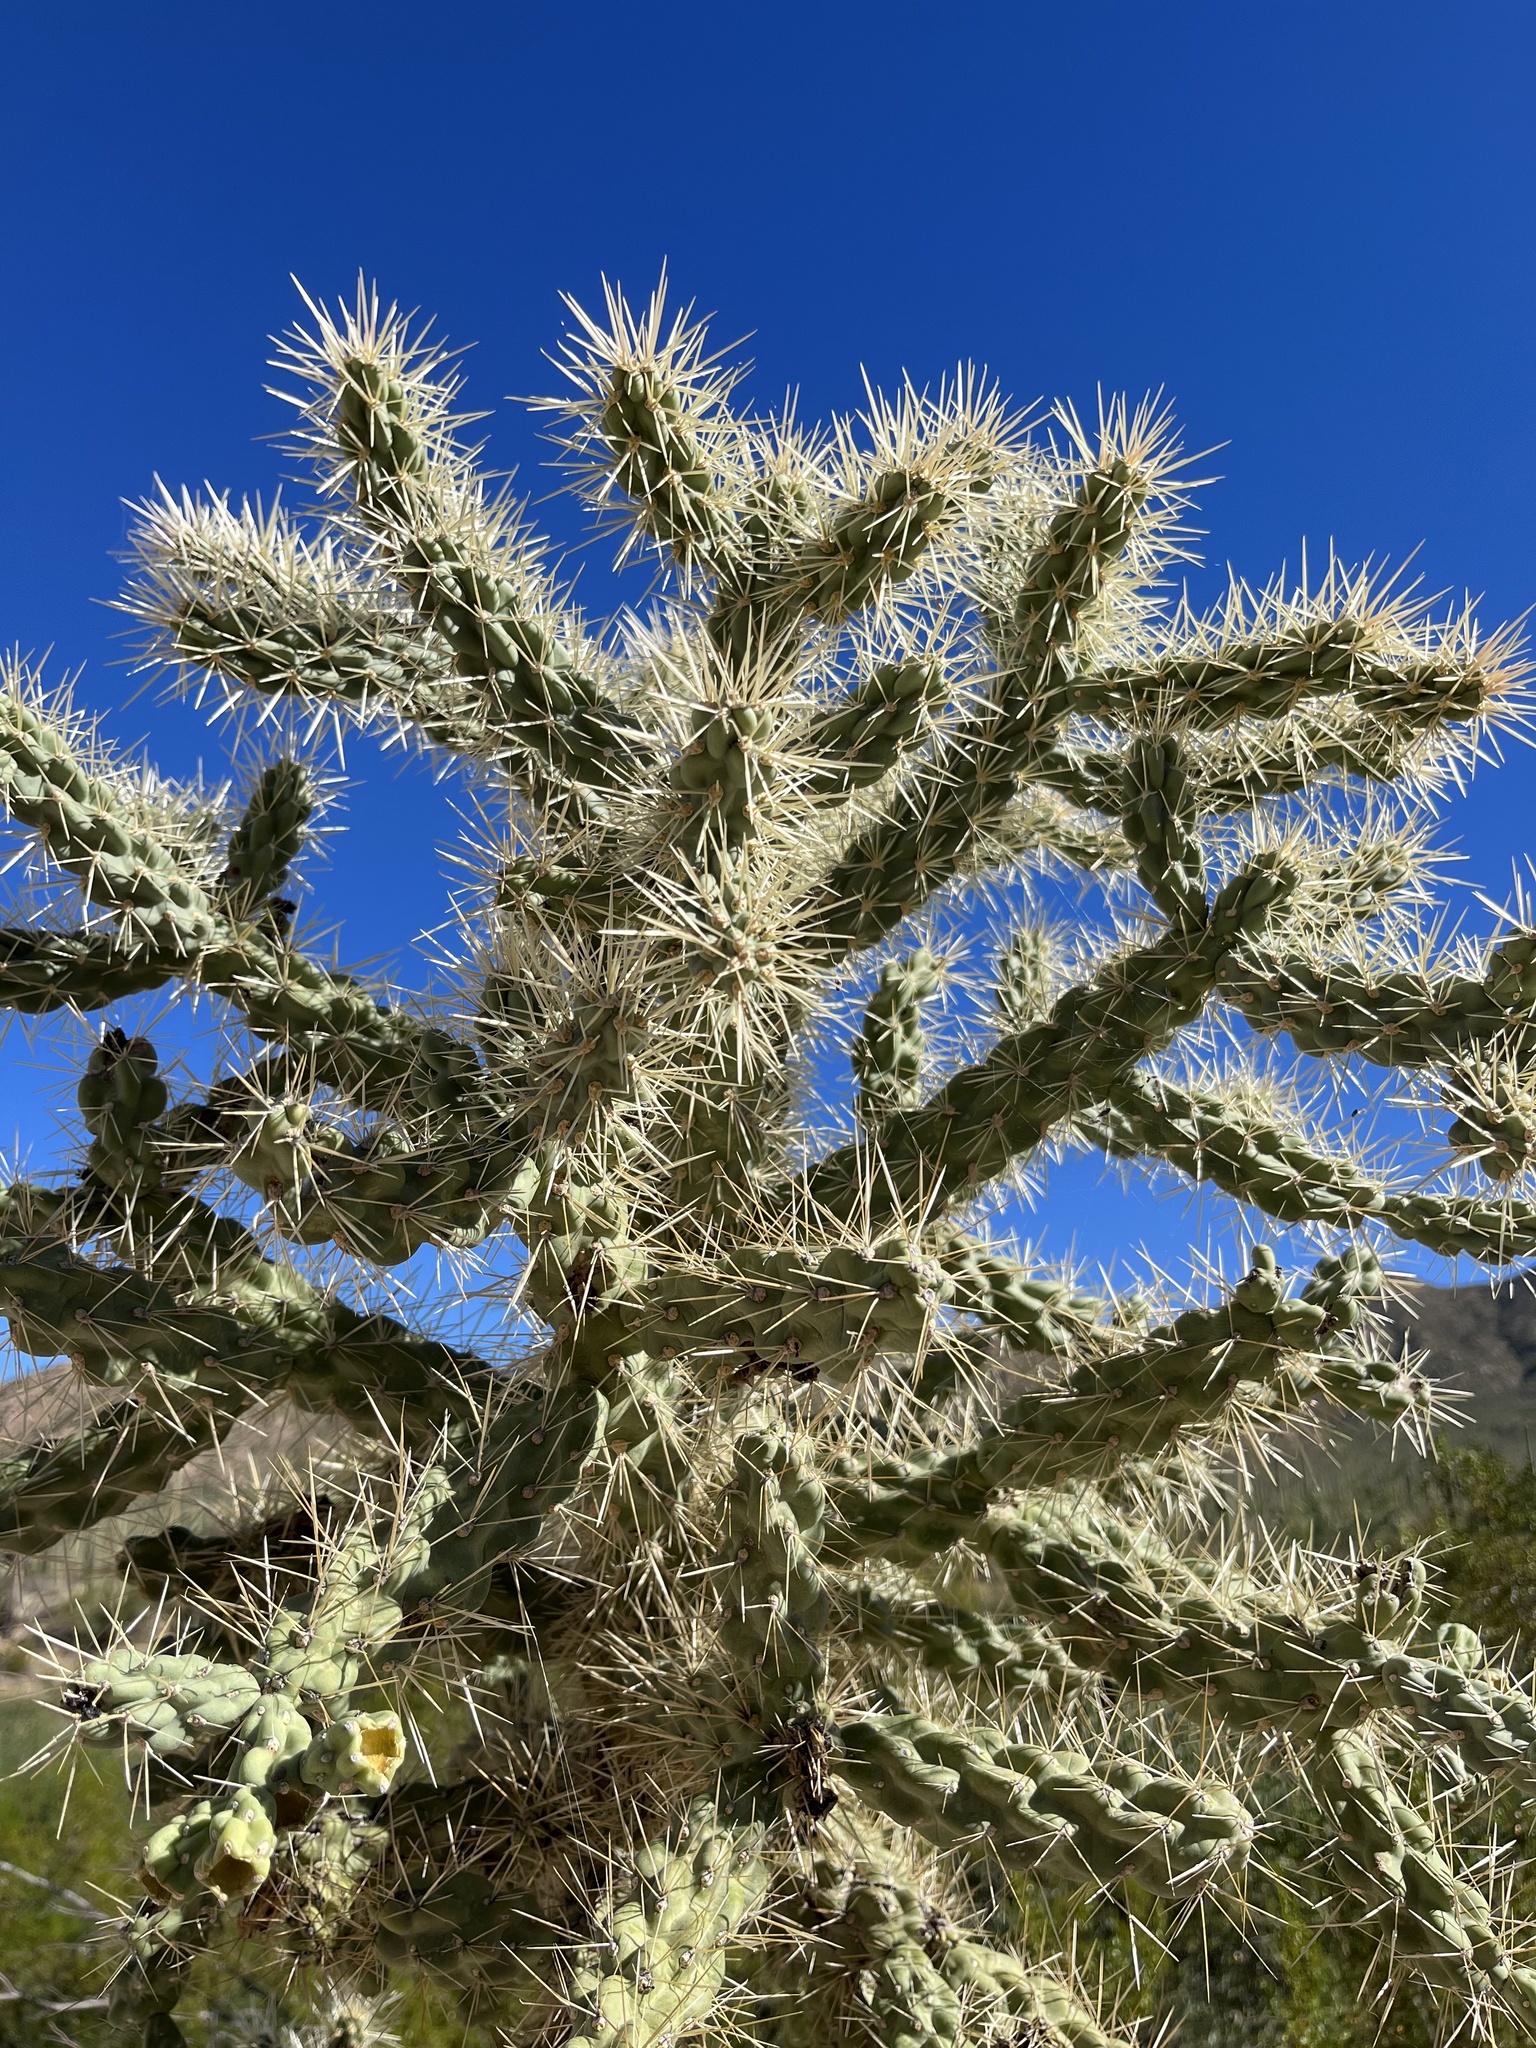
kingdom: Plantae
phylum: Tracheophyta
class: Magnoliopsida
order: Caryophyllales
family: Cactaceae
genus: Cylindropuntia
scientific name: Cylindropuntia fulgida
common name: Jumping cholla
